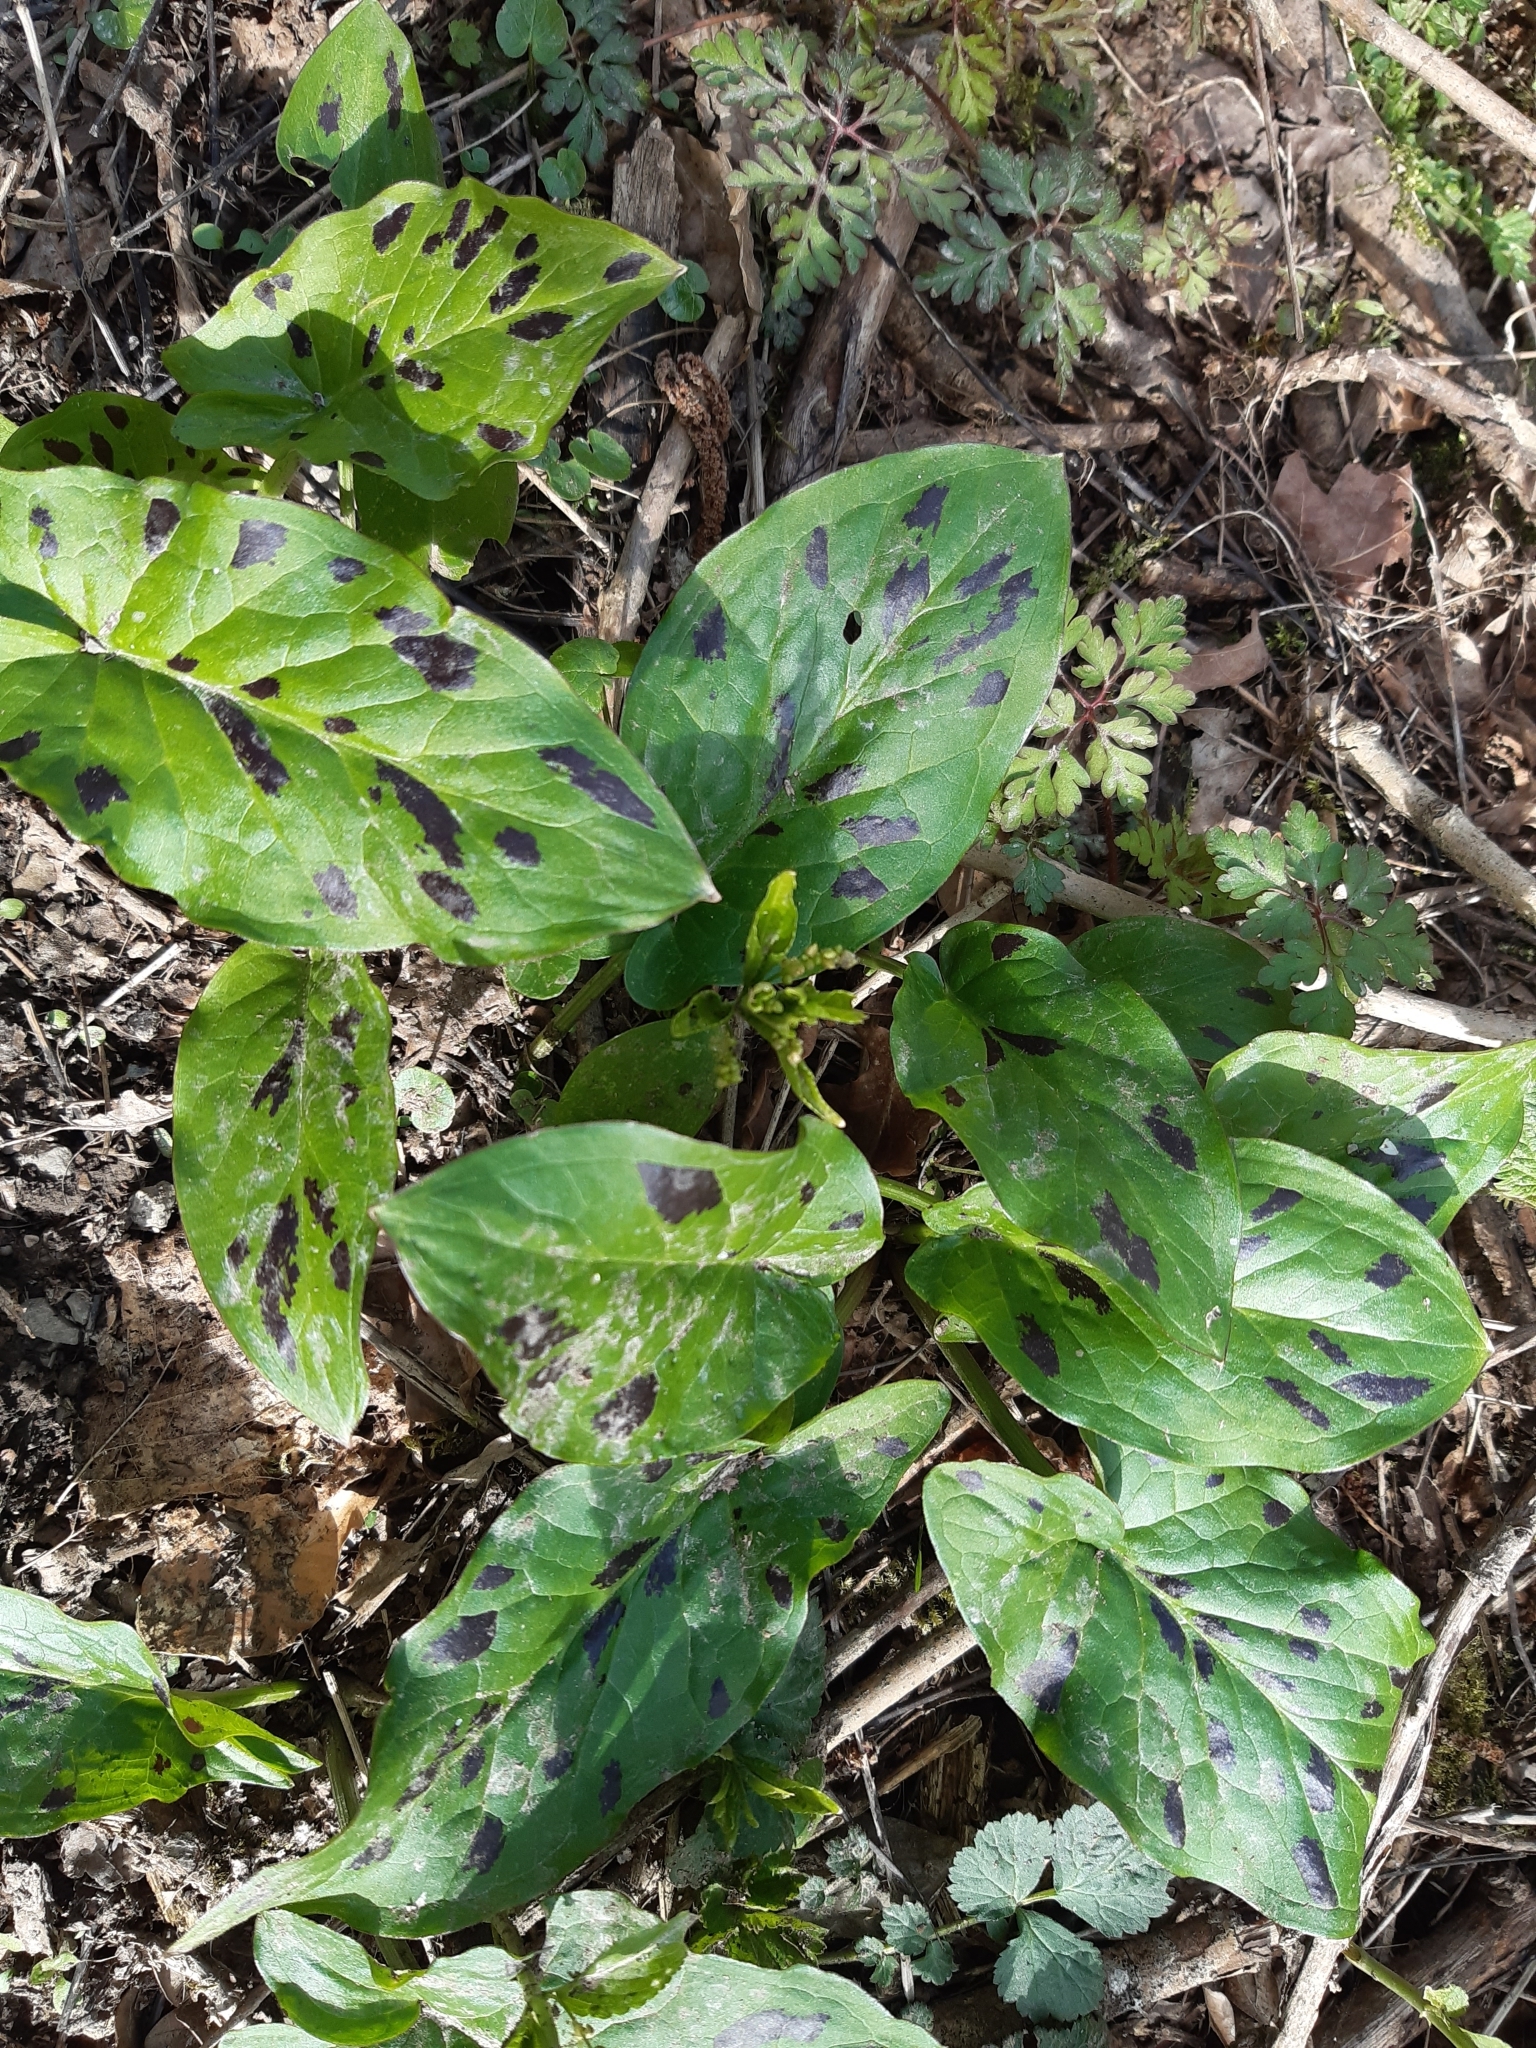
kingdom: Plantae
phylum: Tracheophyta
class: Liliopsida
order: Alismatales
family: Araceae
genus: Arum
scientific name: Arum maculatum
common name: Lords-and-ladies
